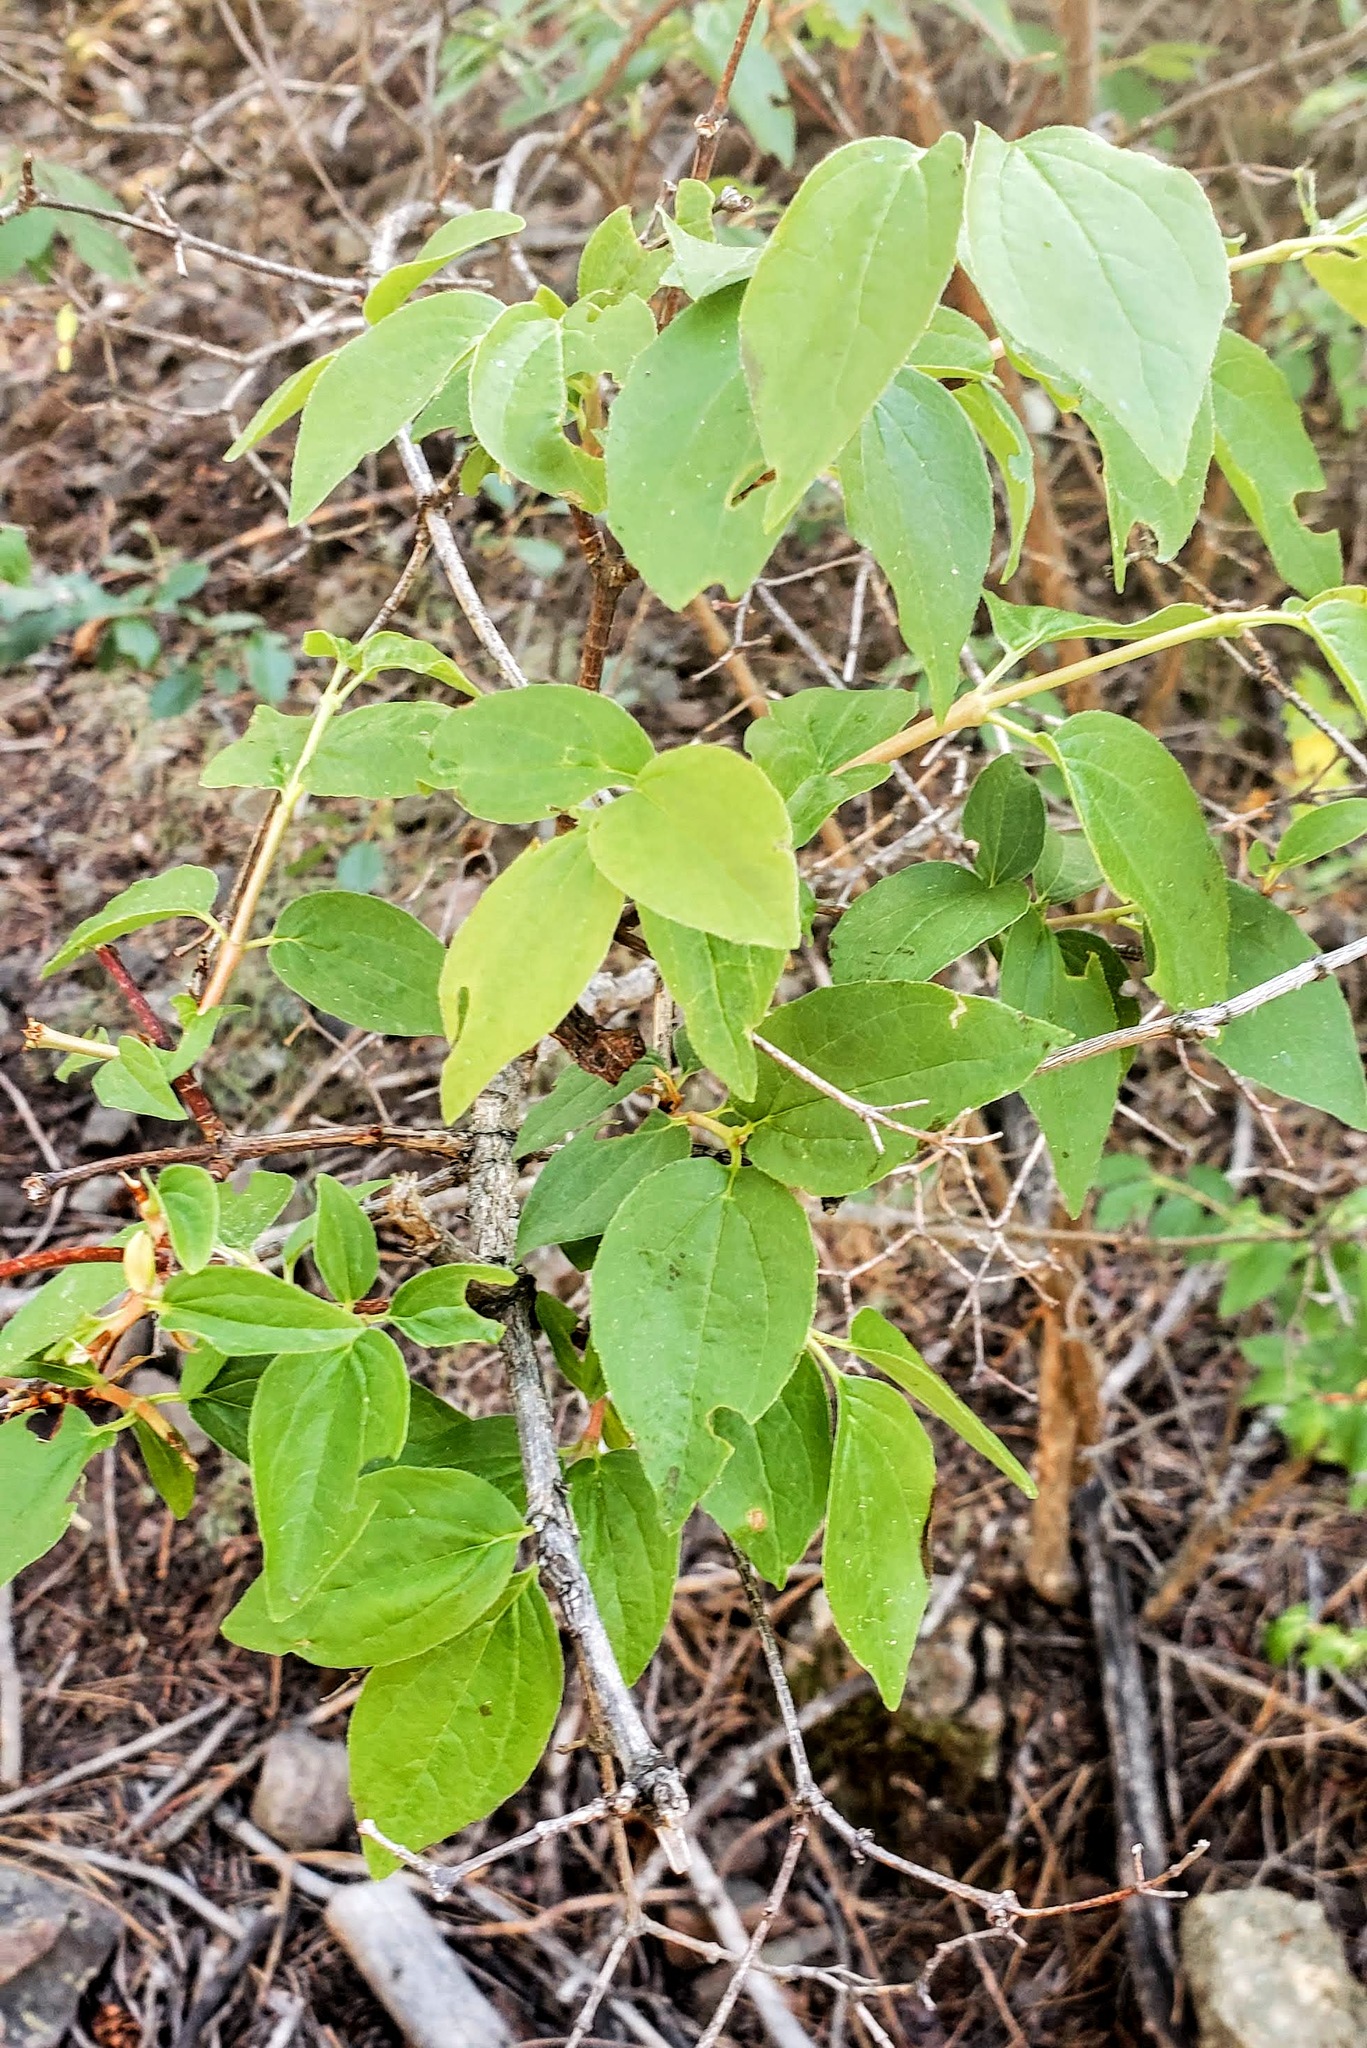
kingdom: Plantae
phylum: Tracheophyta
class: Magnoliopsida
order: Cornales
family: Hydrangeaceae
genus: Philadelphus
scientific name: Philadelphus lewisii
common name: Lewis's mock orange
